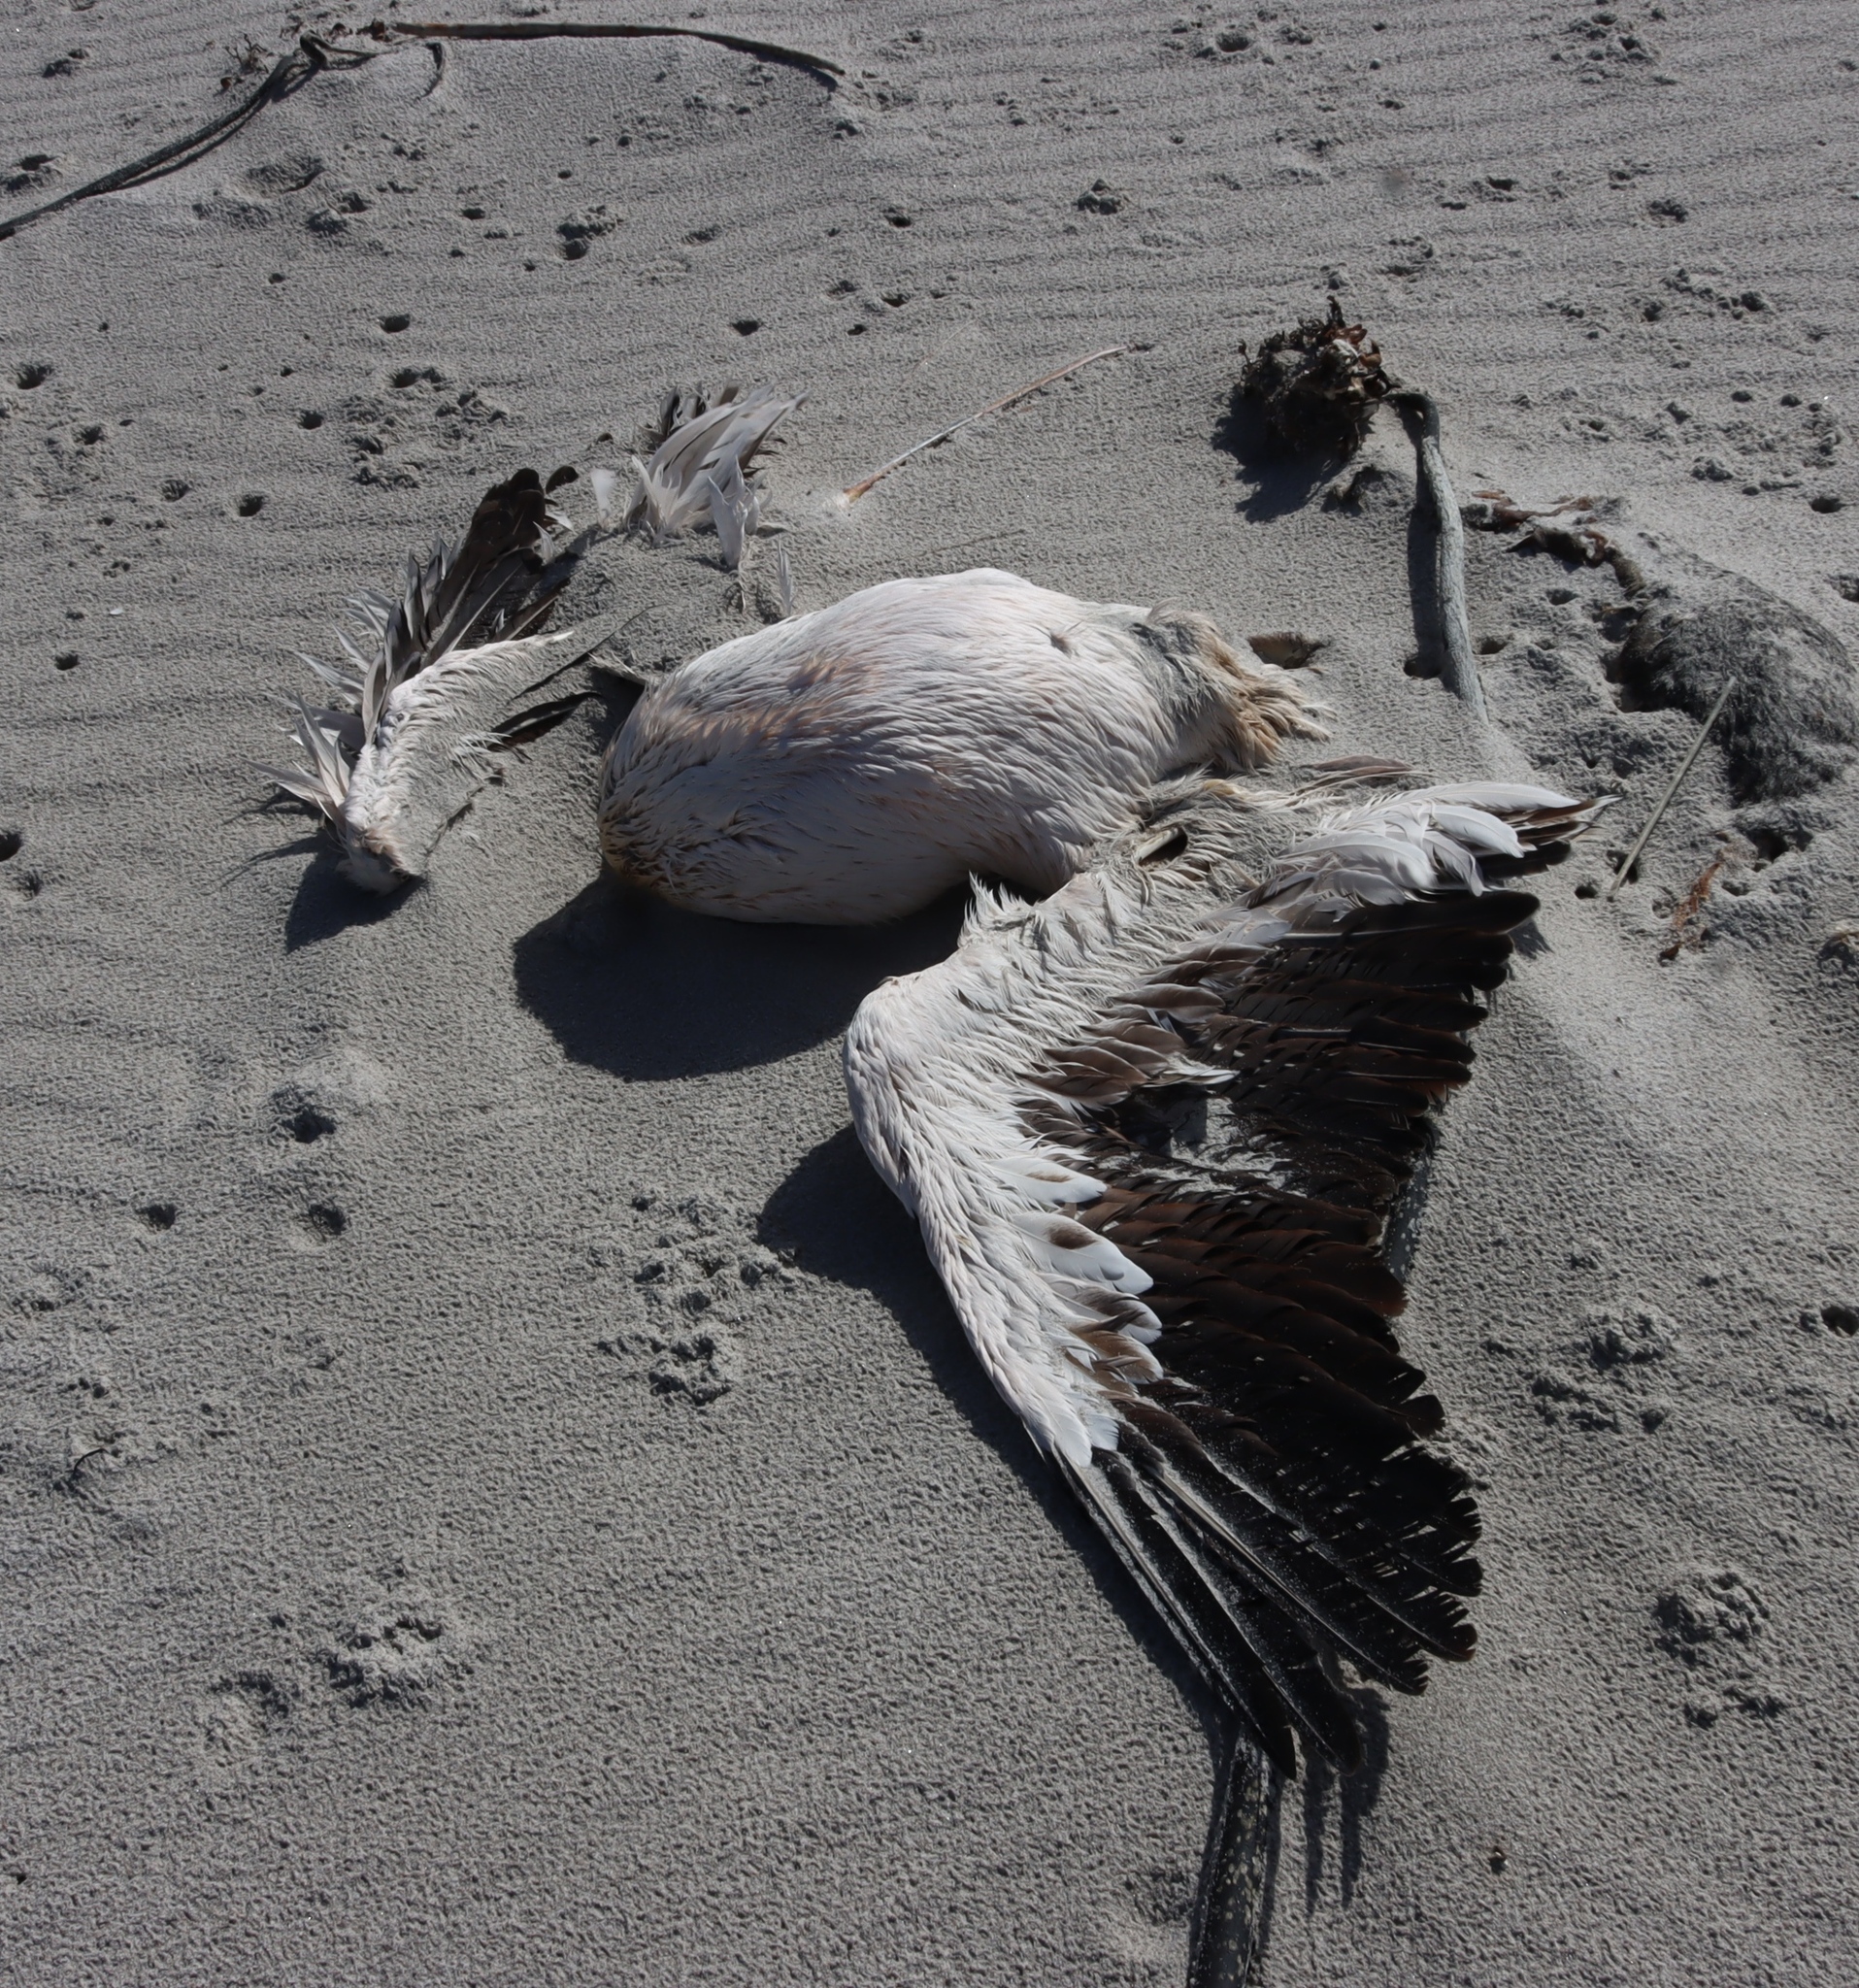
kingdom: Animalia
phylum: Chordata
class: Aves
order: Pelecaniformes
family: Pelecanidae
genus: Pelecanus
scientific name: Pelecanus onocrotalus
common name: Great white pelican
